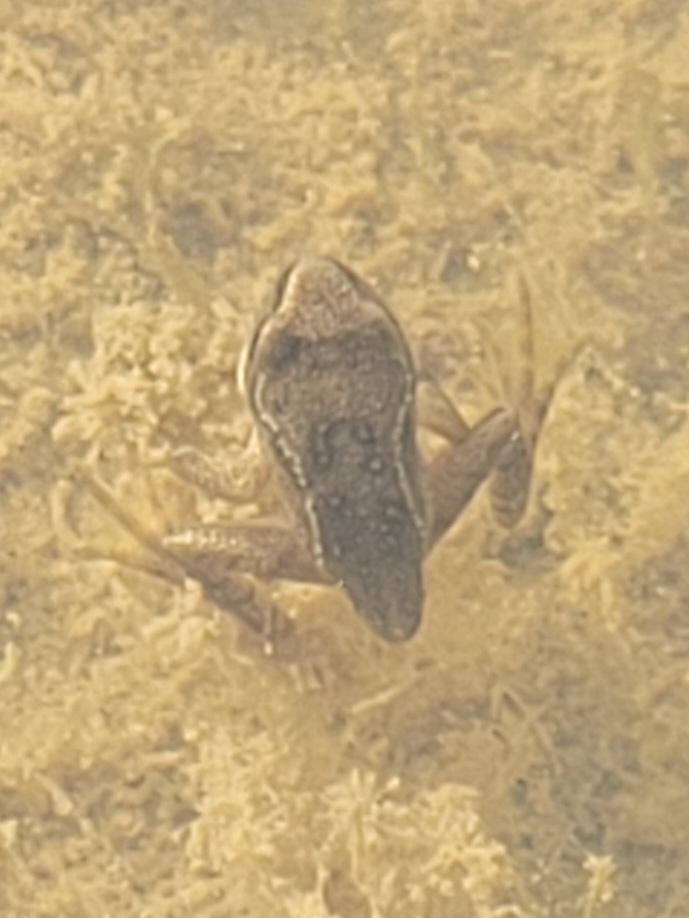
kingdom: Animalia
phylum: Chordata
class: Amphibia
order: Anura
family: Ranidae
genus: Rana
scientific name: Rana temporaria
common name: Common frog
